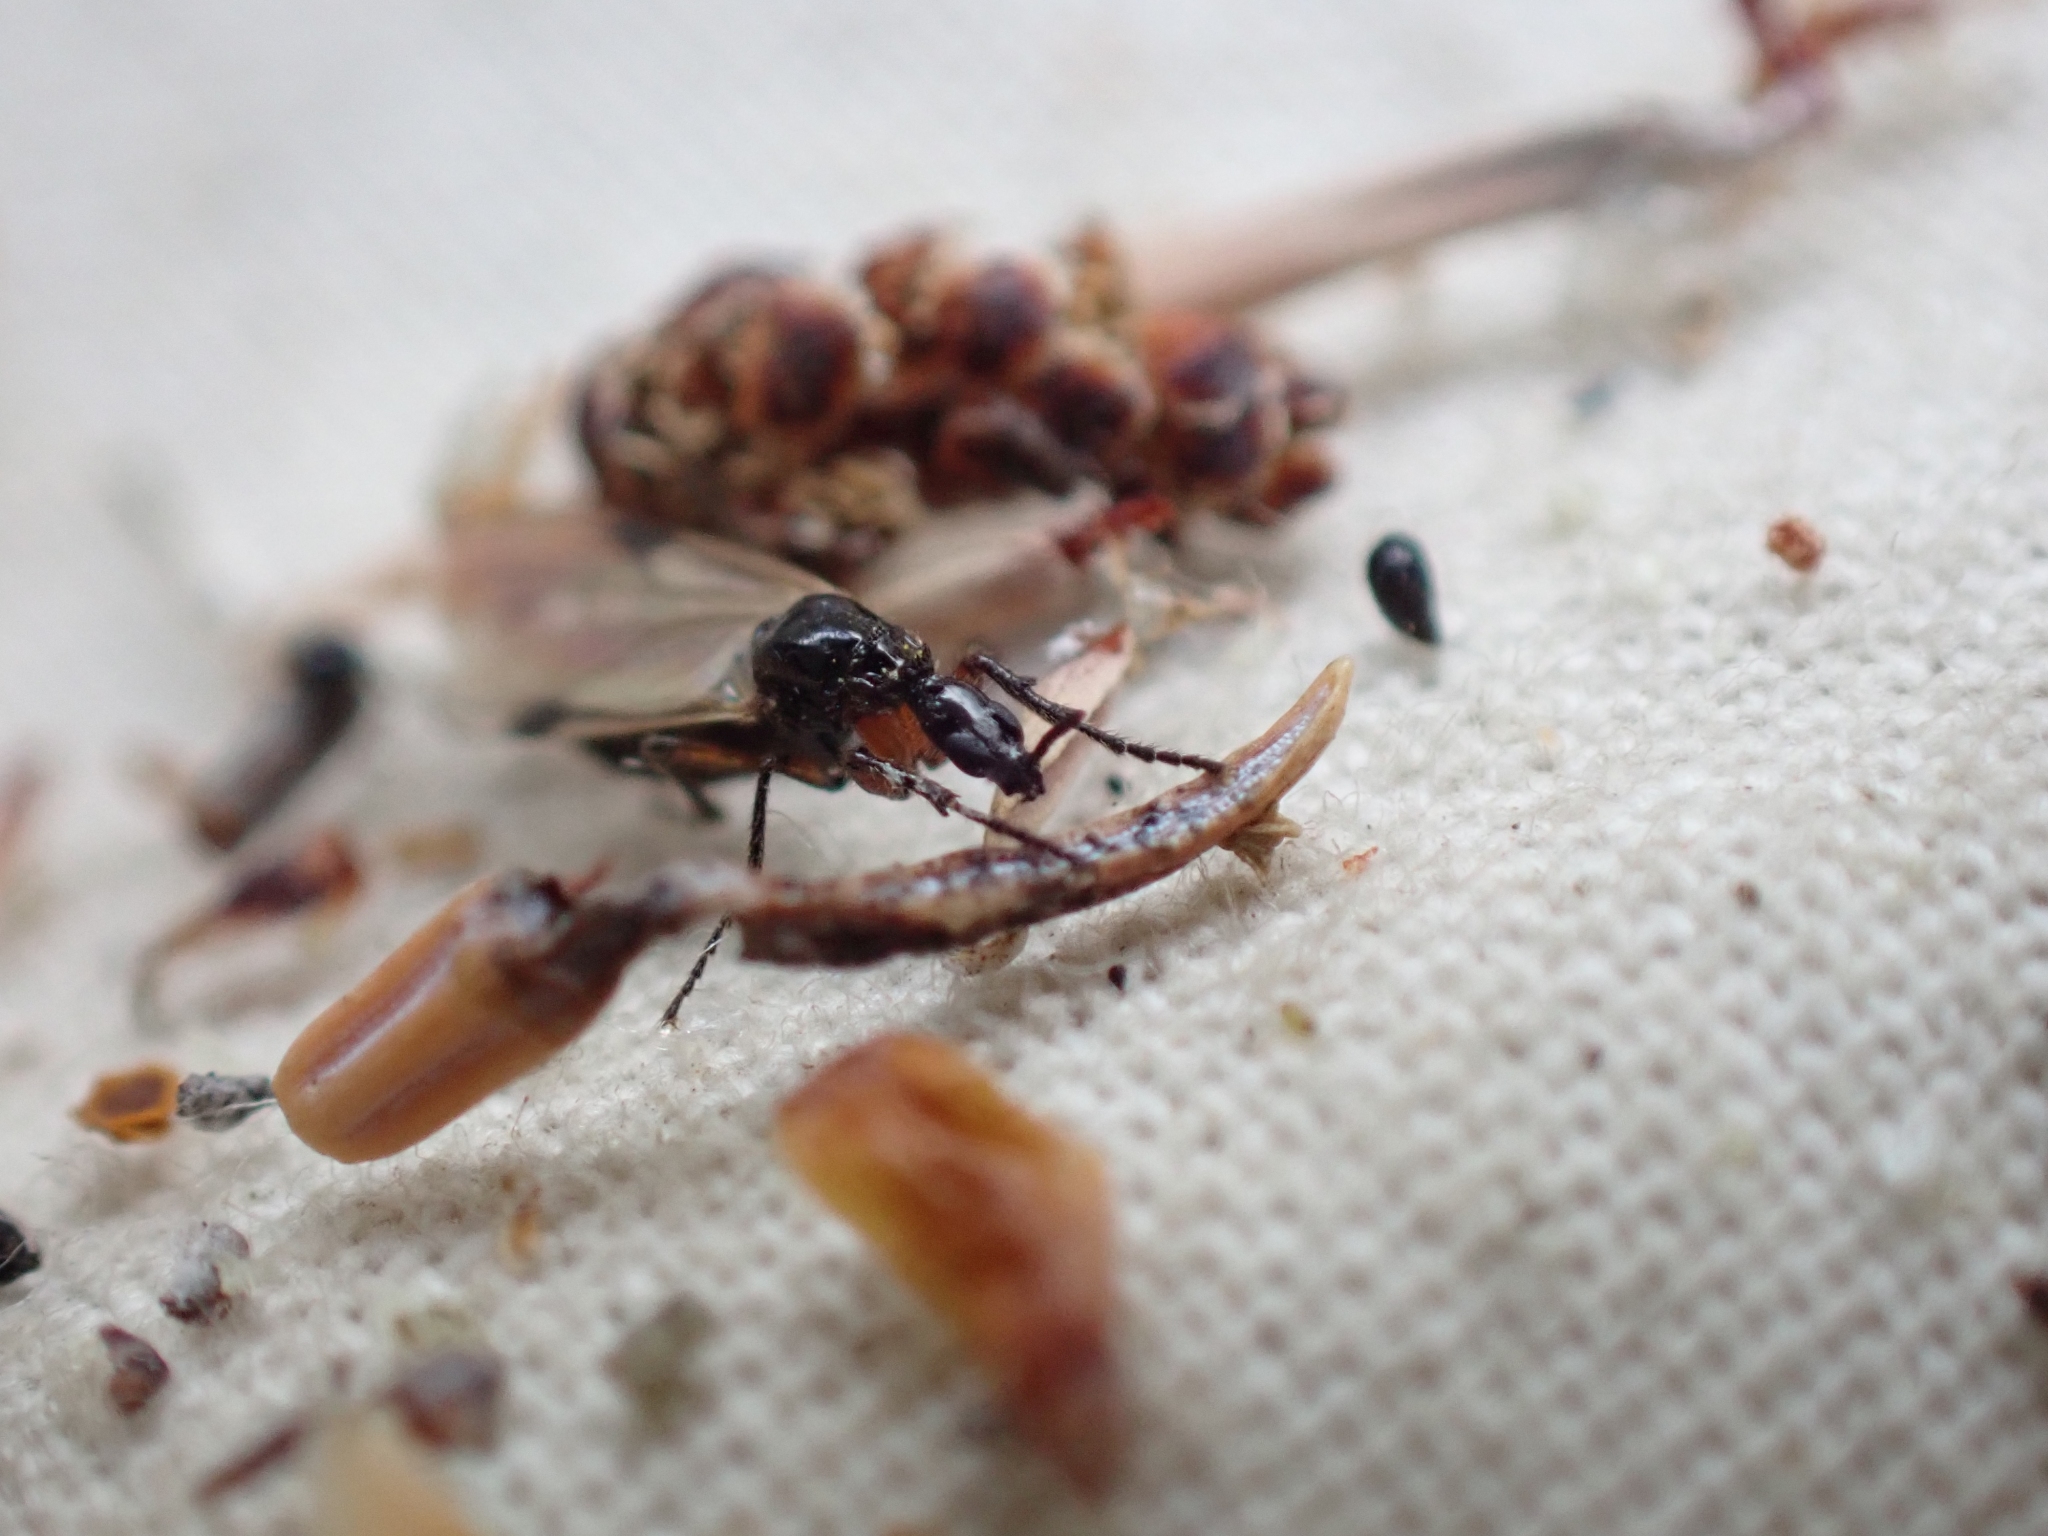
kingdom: Animalia
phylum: Arthropoda
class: Insecta
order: Diptera
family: Bibionidae
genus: Dilophus
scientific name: Dilophus
